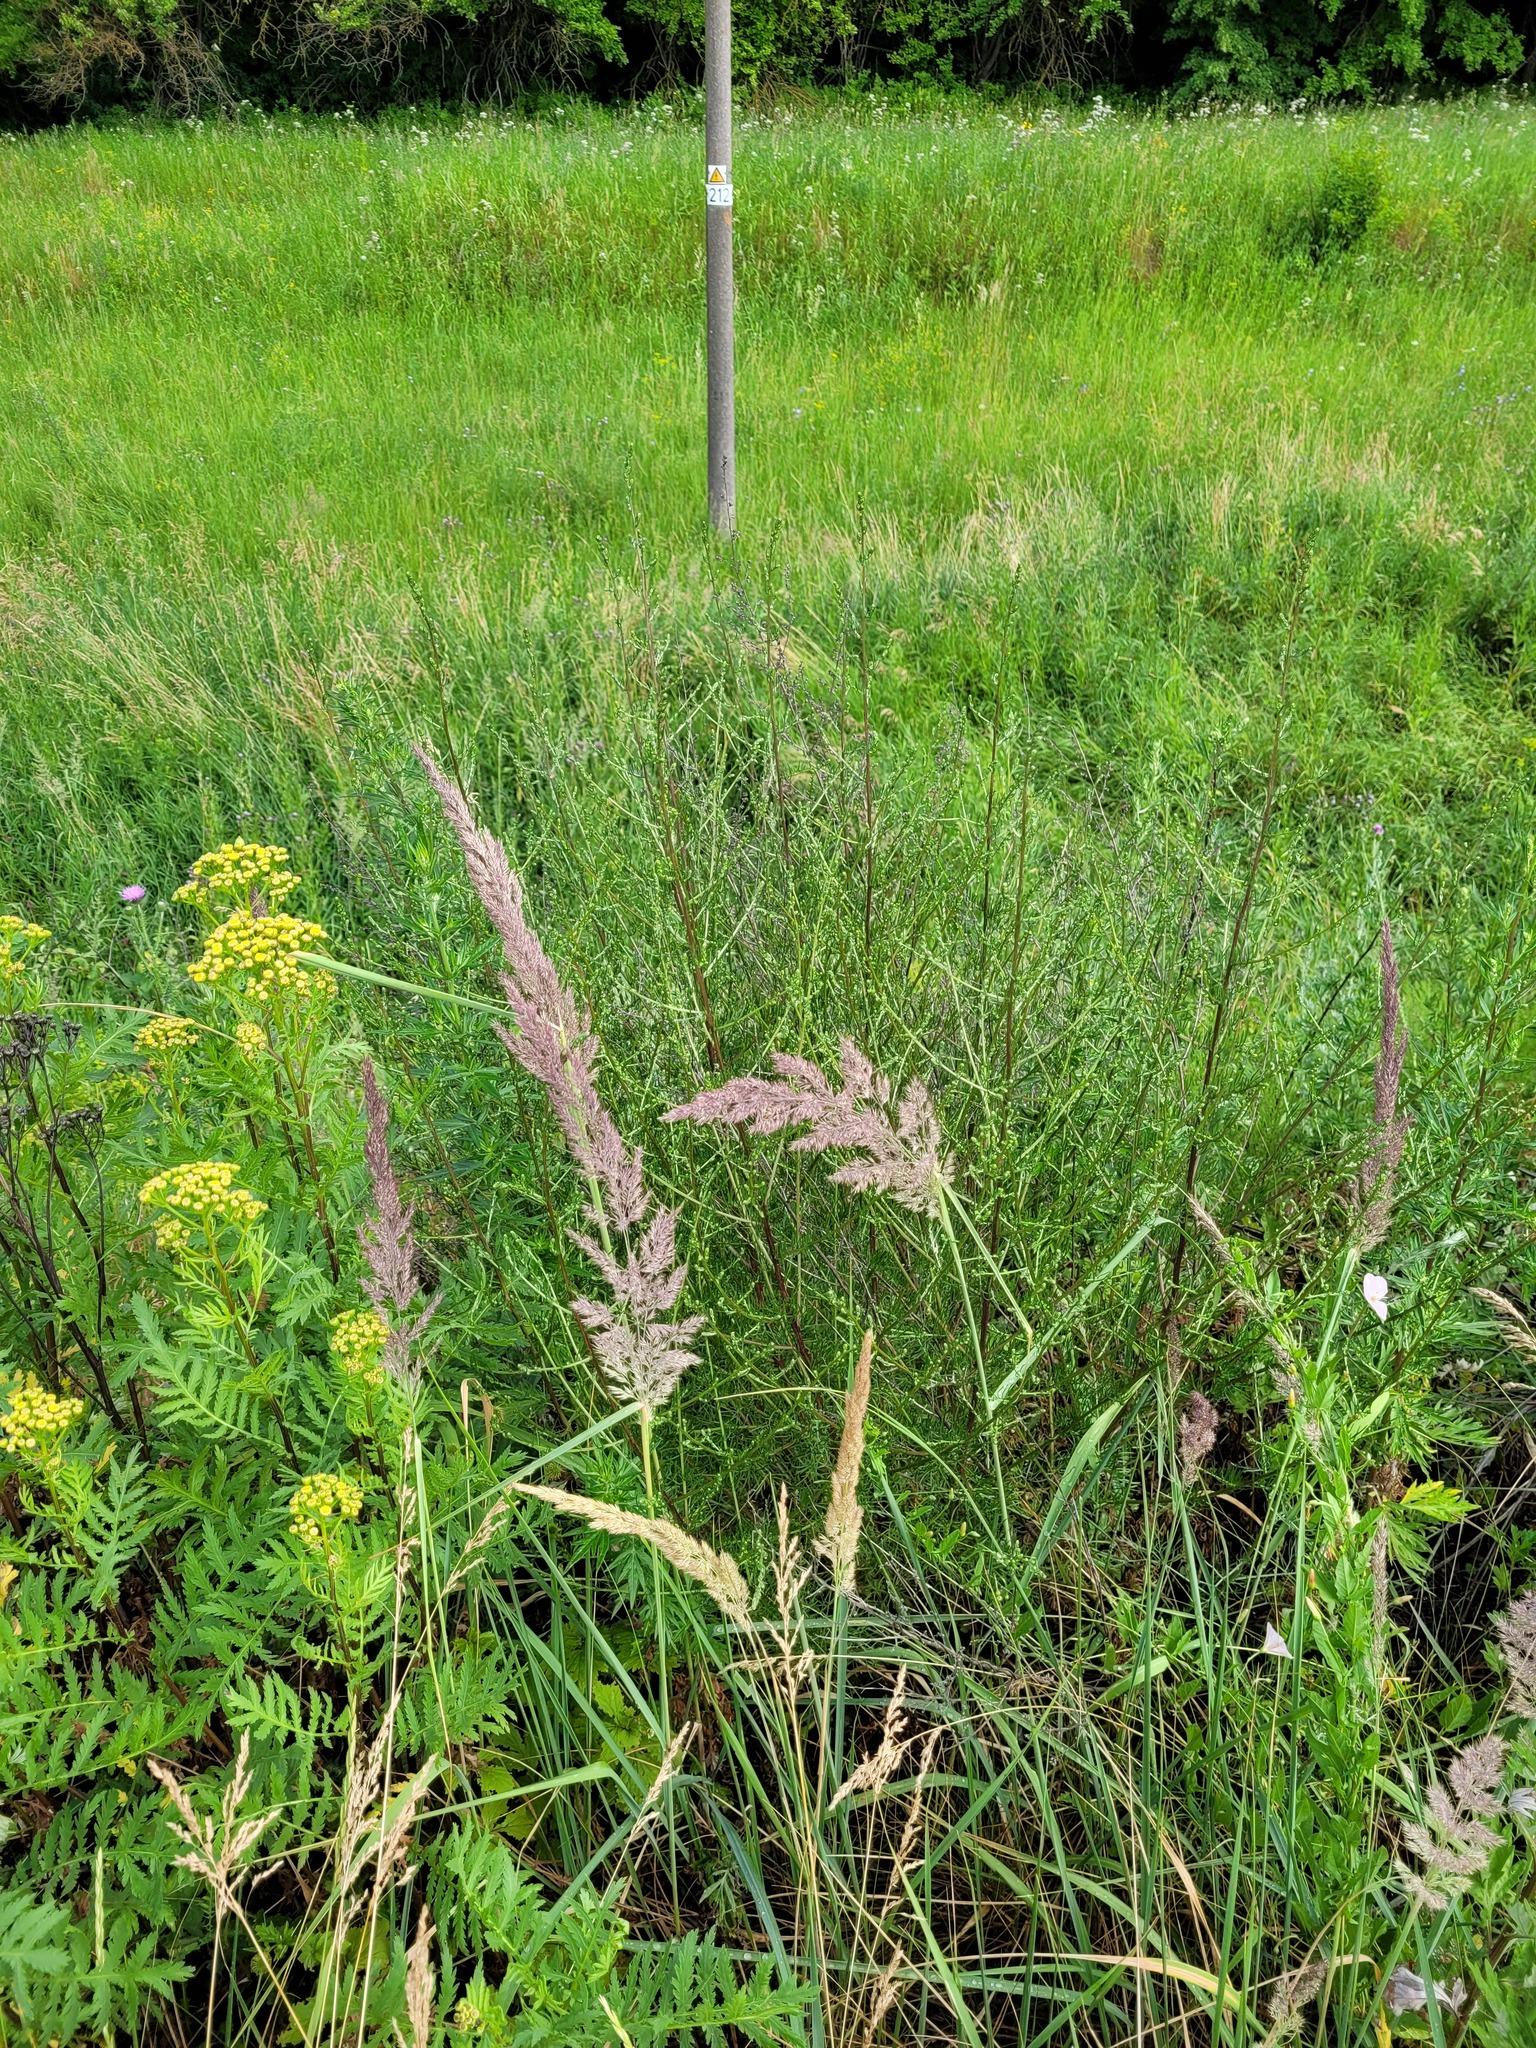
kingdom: Plantae
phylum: Tracheophyta
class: Liliopsida
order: Poales
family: Poaceae
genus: Calamagrostis
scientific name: Calamagrostis epigejos
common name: Wood small-reed
